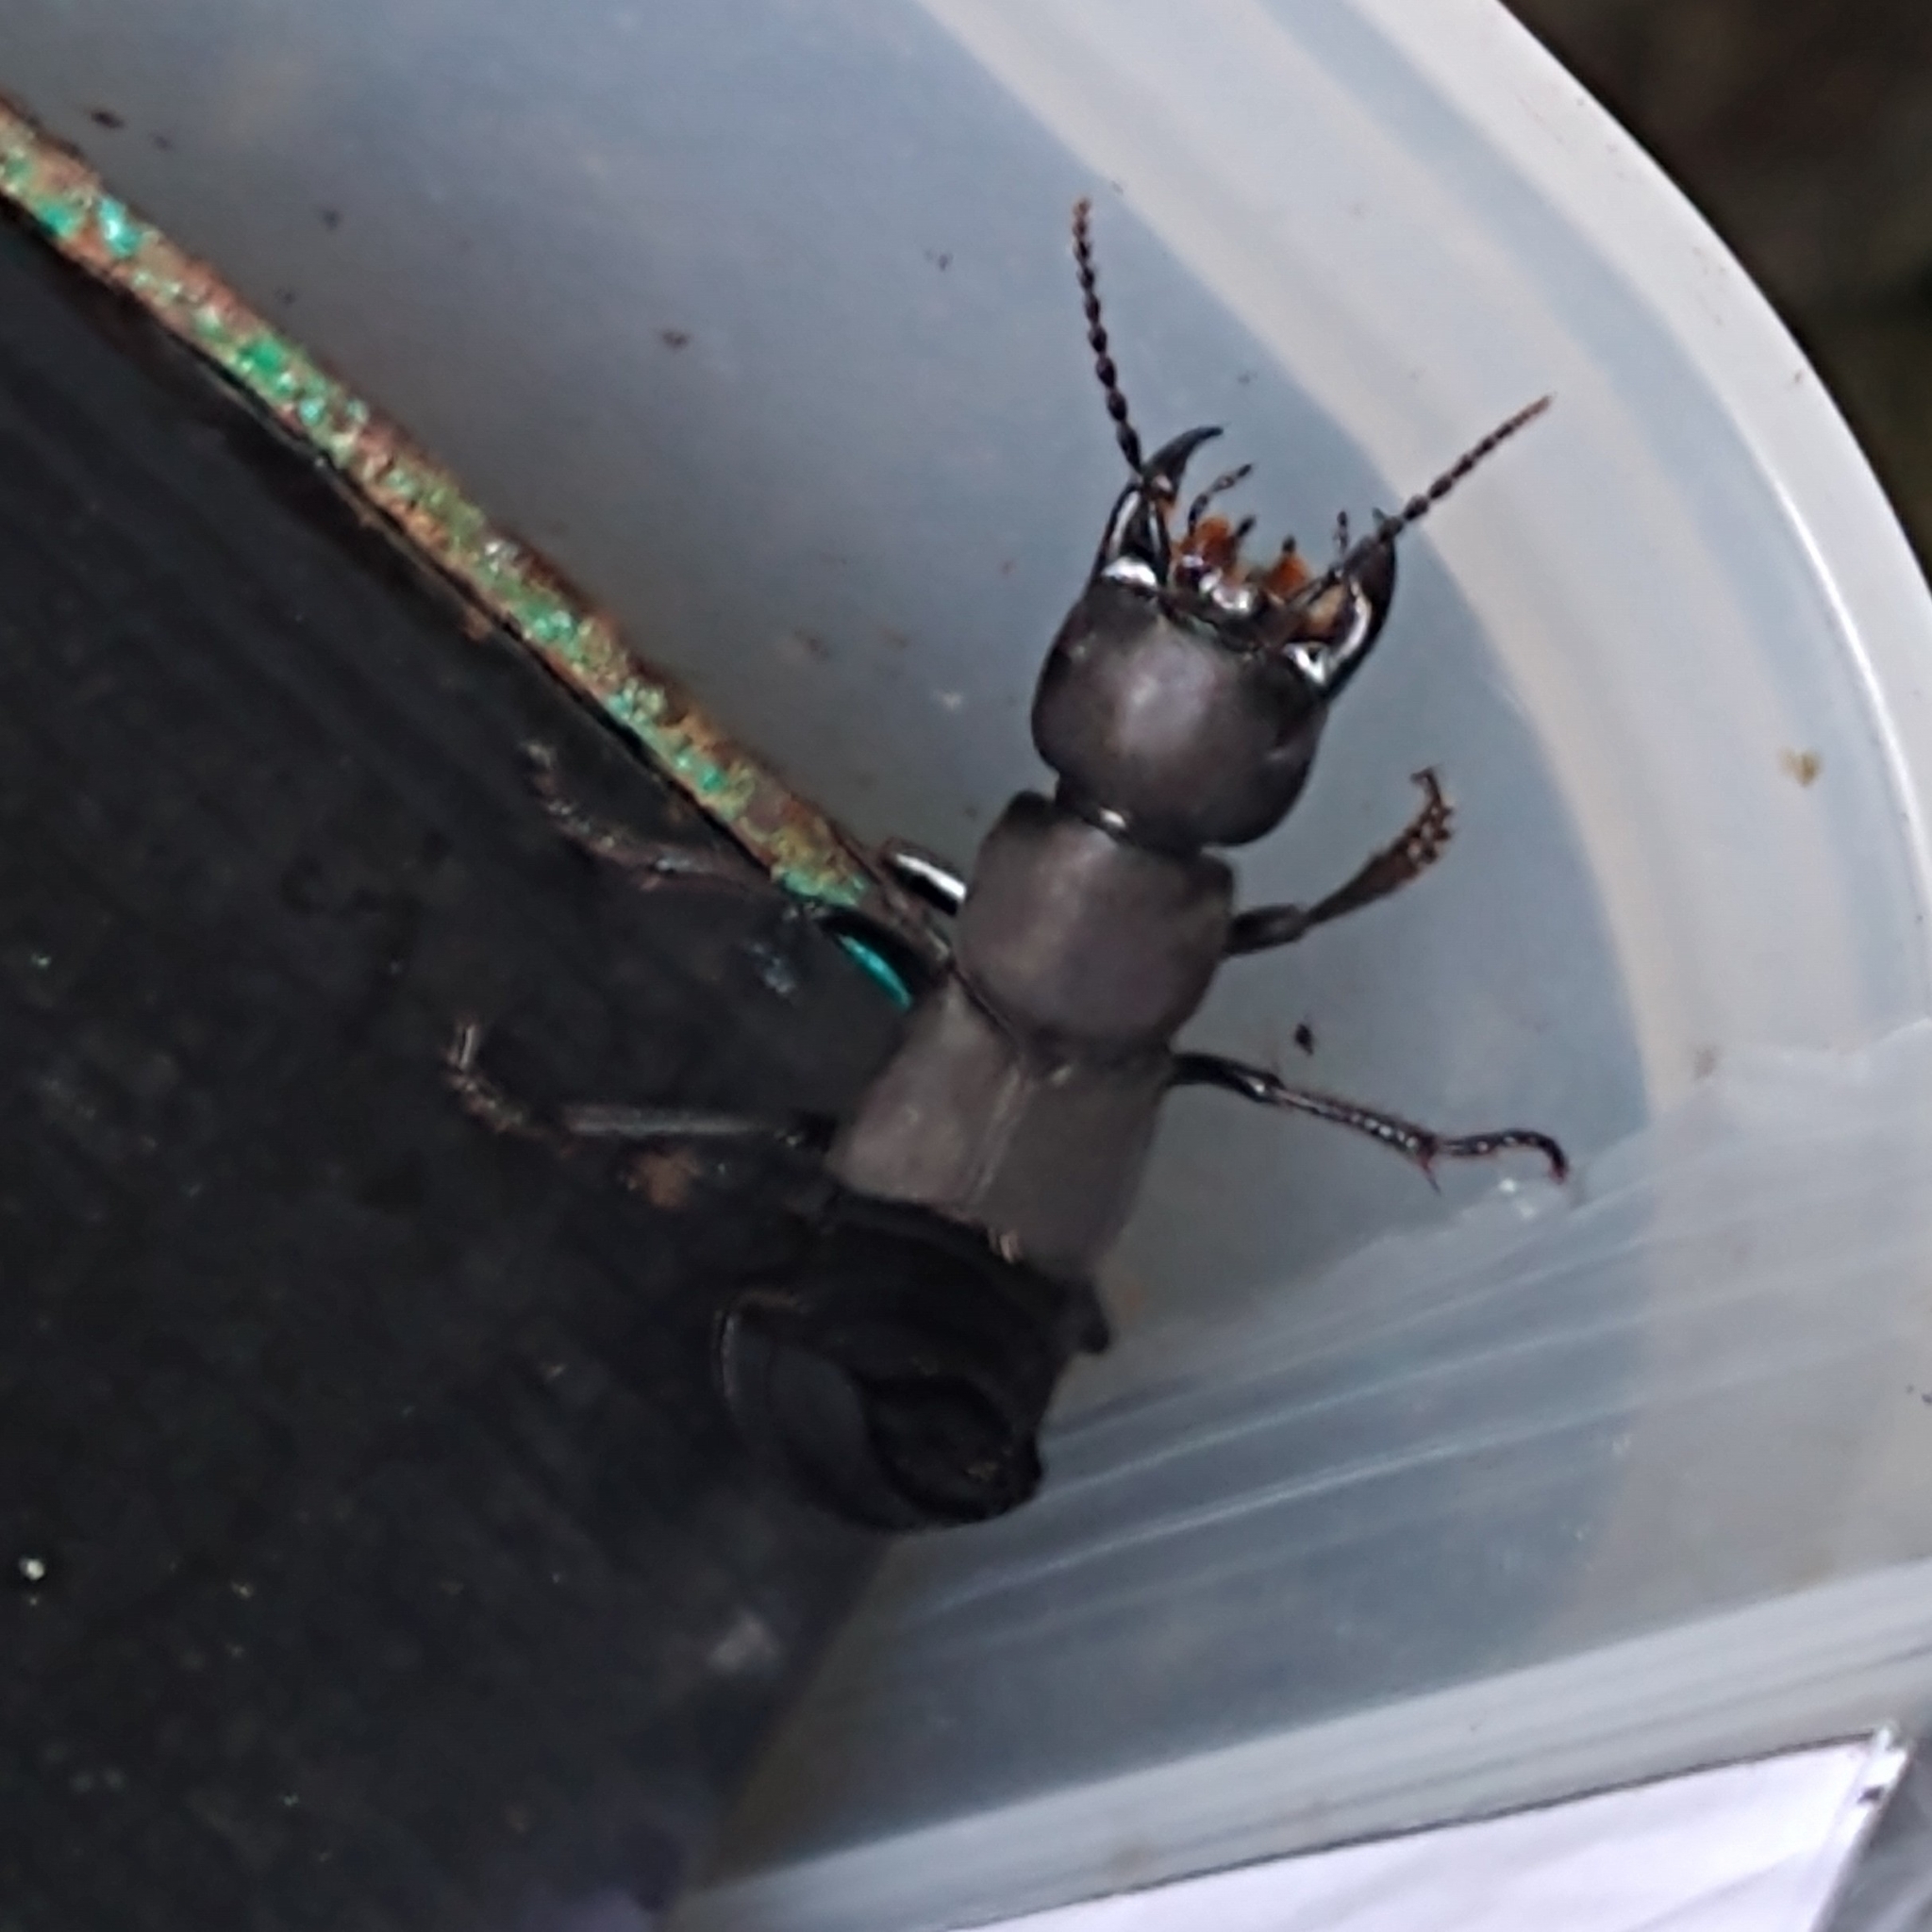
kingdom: Animalia
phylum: Arthropoda
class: Insecta
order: Coleoptera
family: Staphylinidae
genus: Ocypus
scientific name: Ocypus olens
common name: Devil's coach-horse
